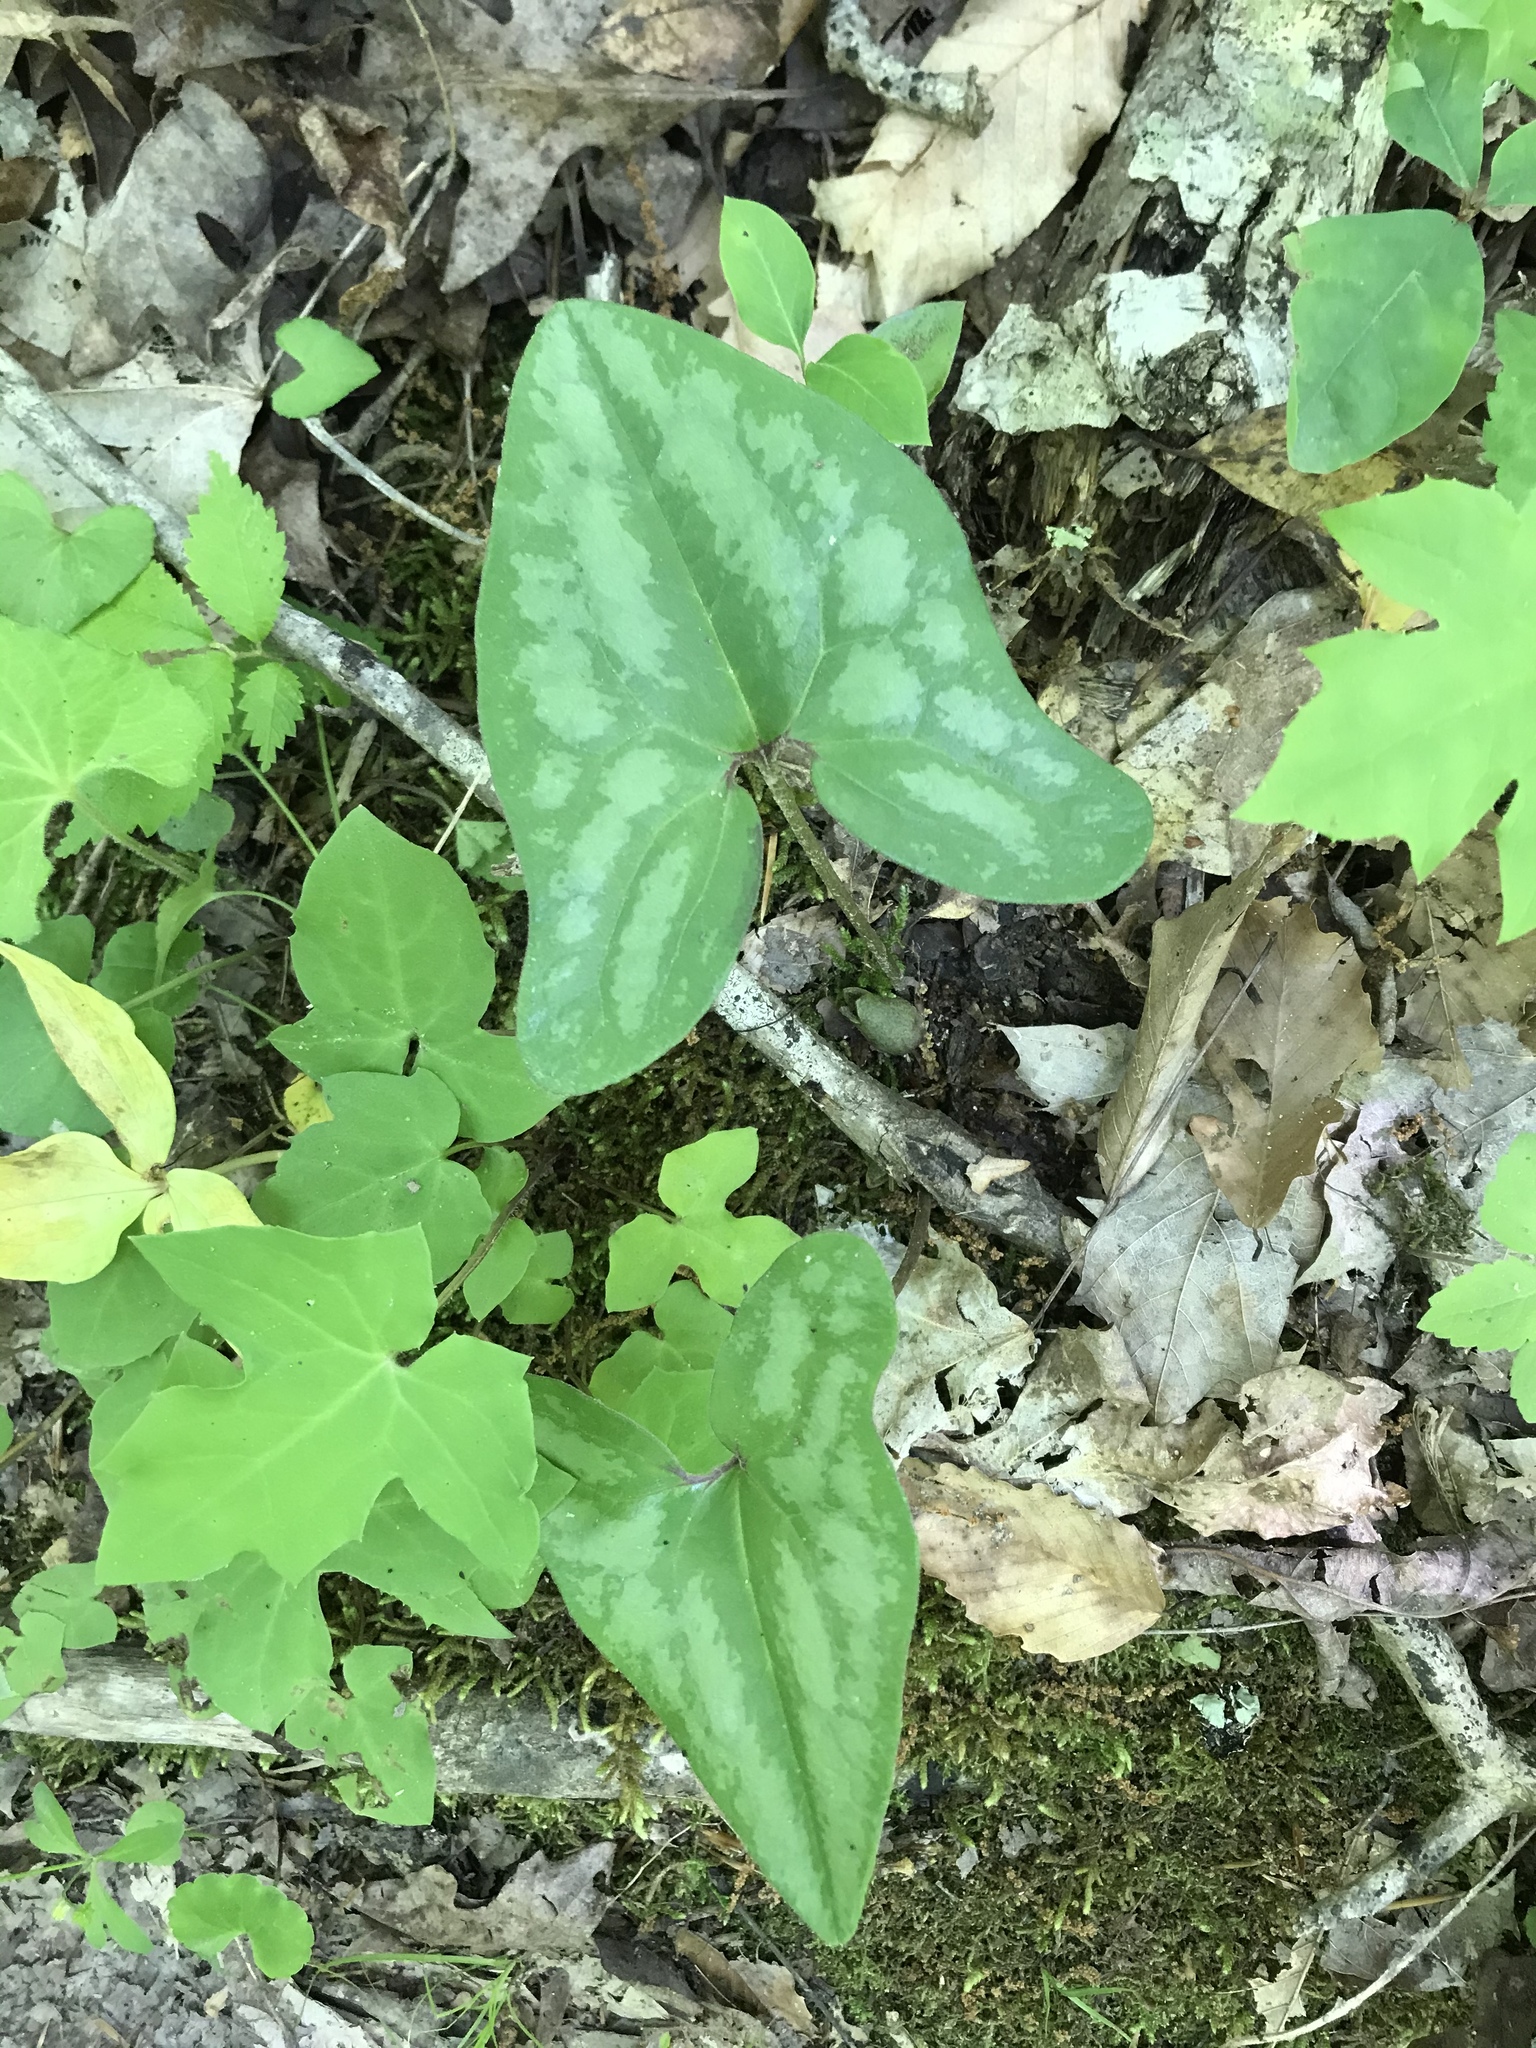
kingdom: Plantae
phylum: Tracheophyta
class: Magnoliopsida
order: Piperales
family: Aristolochiaceae
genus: Hexastylis
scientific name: Hexastylis arifolia
